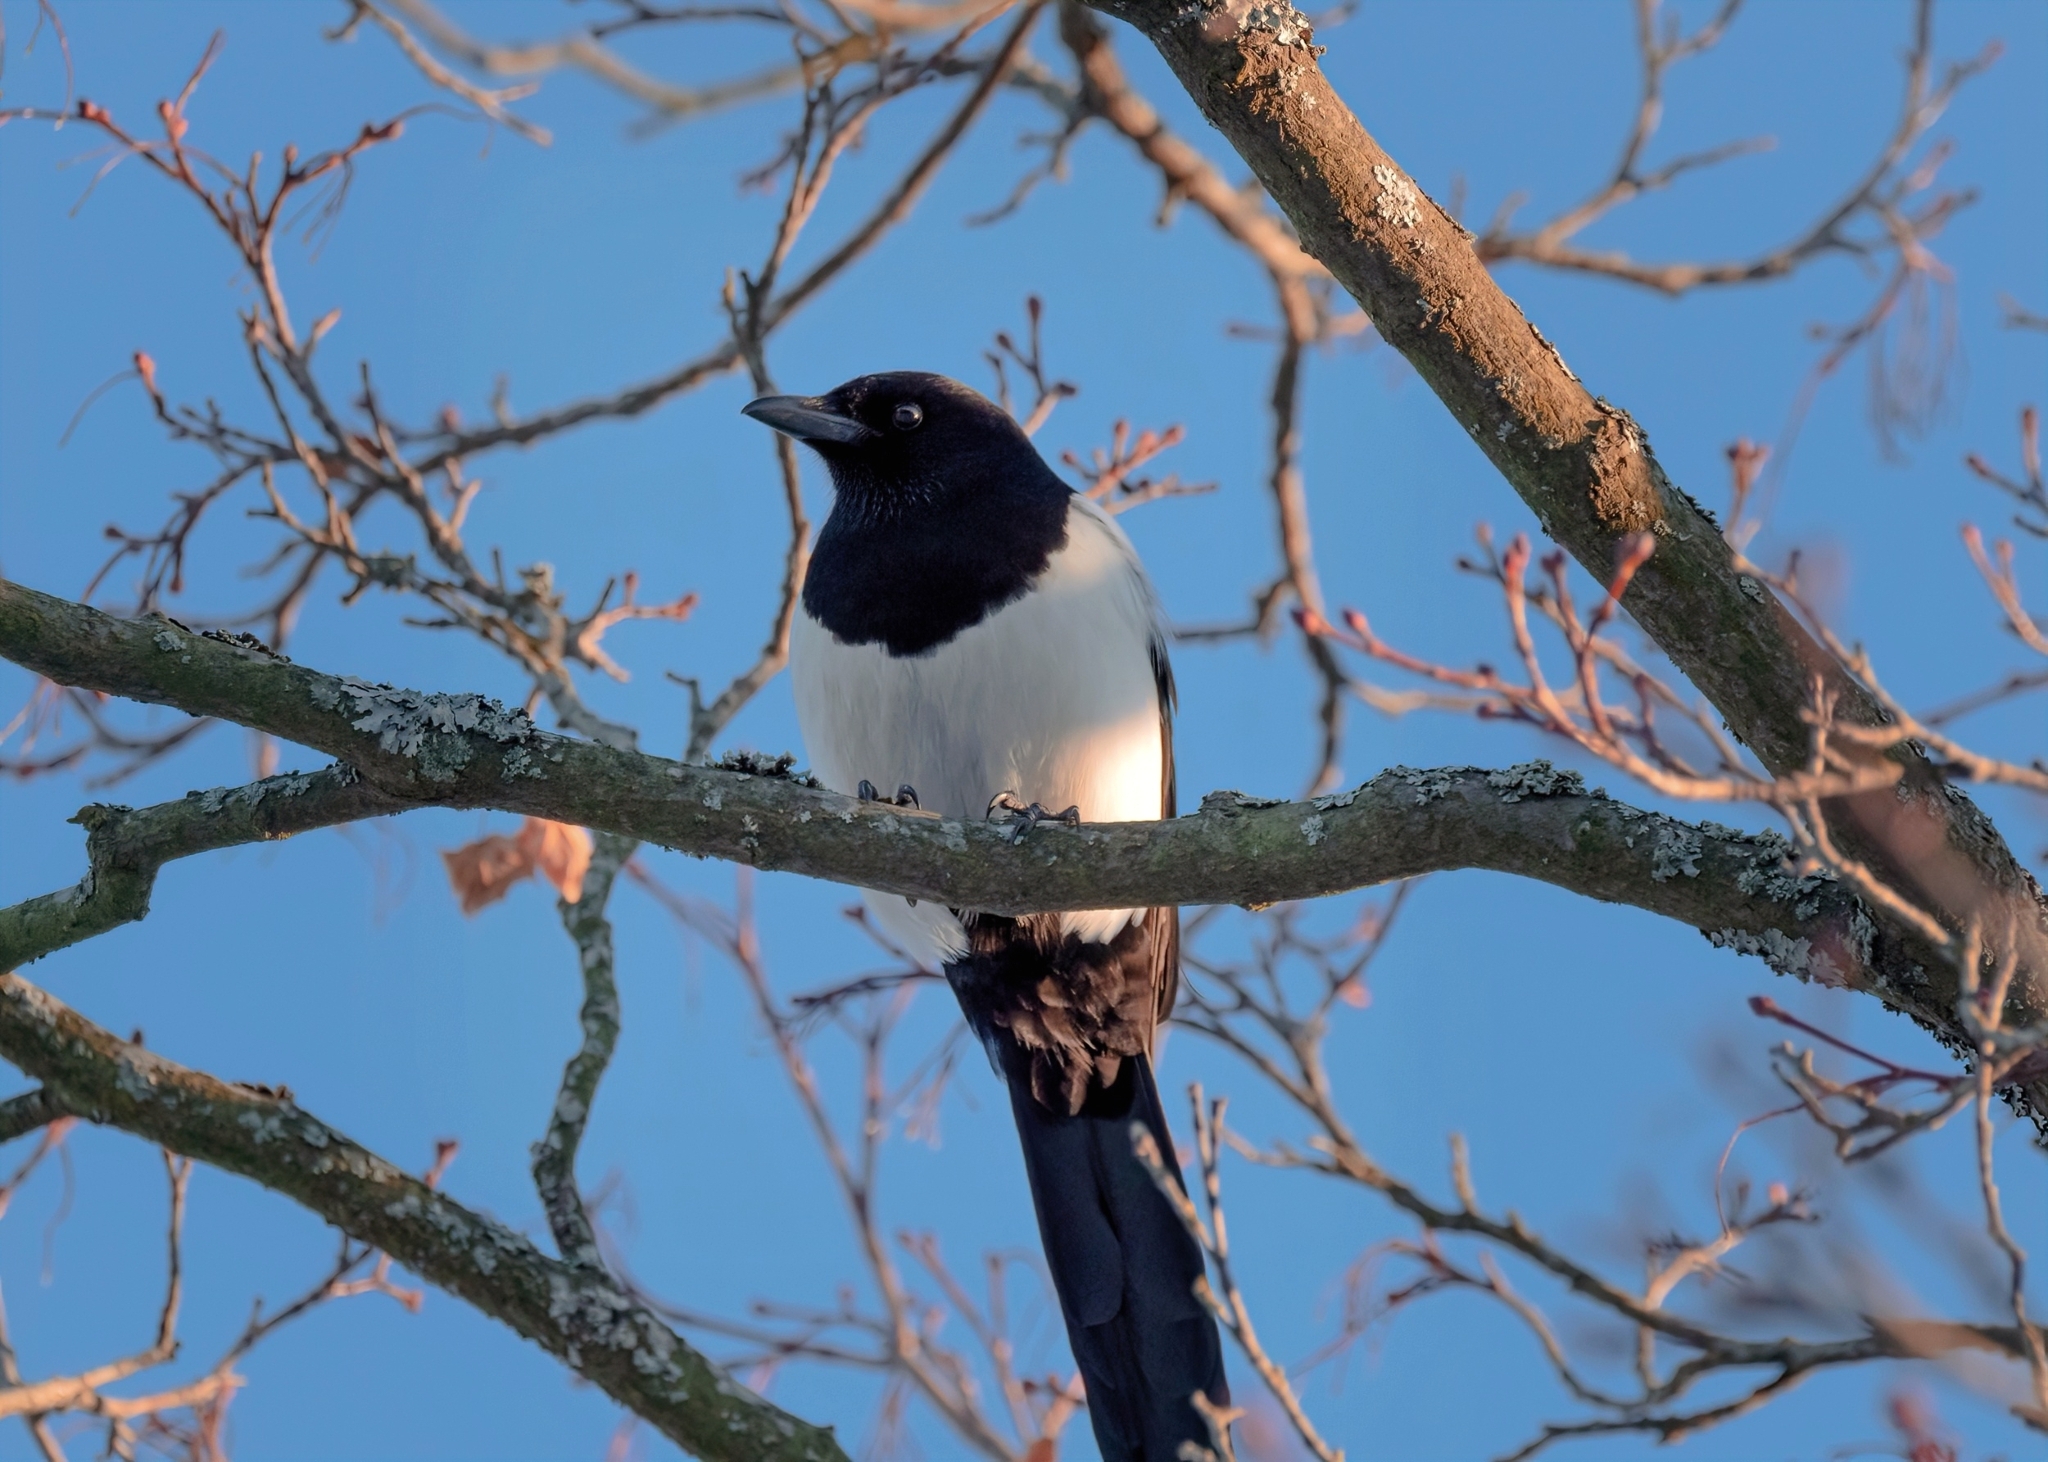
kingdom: Animalia
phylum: Chordata
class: Aves
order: Passeriformes
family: Corvidae
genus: Pica
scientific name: Pica pica
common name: Eurasian magpie
